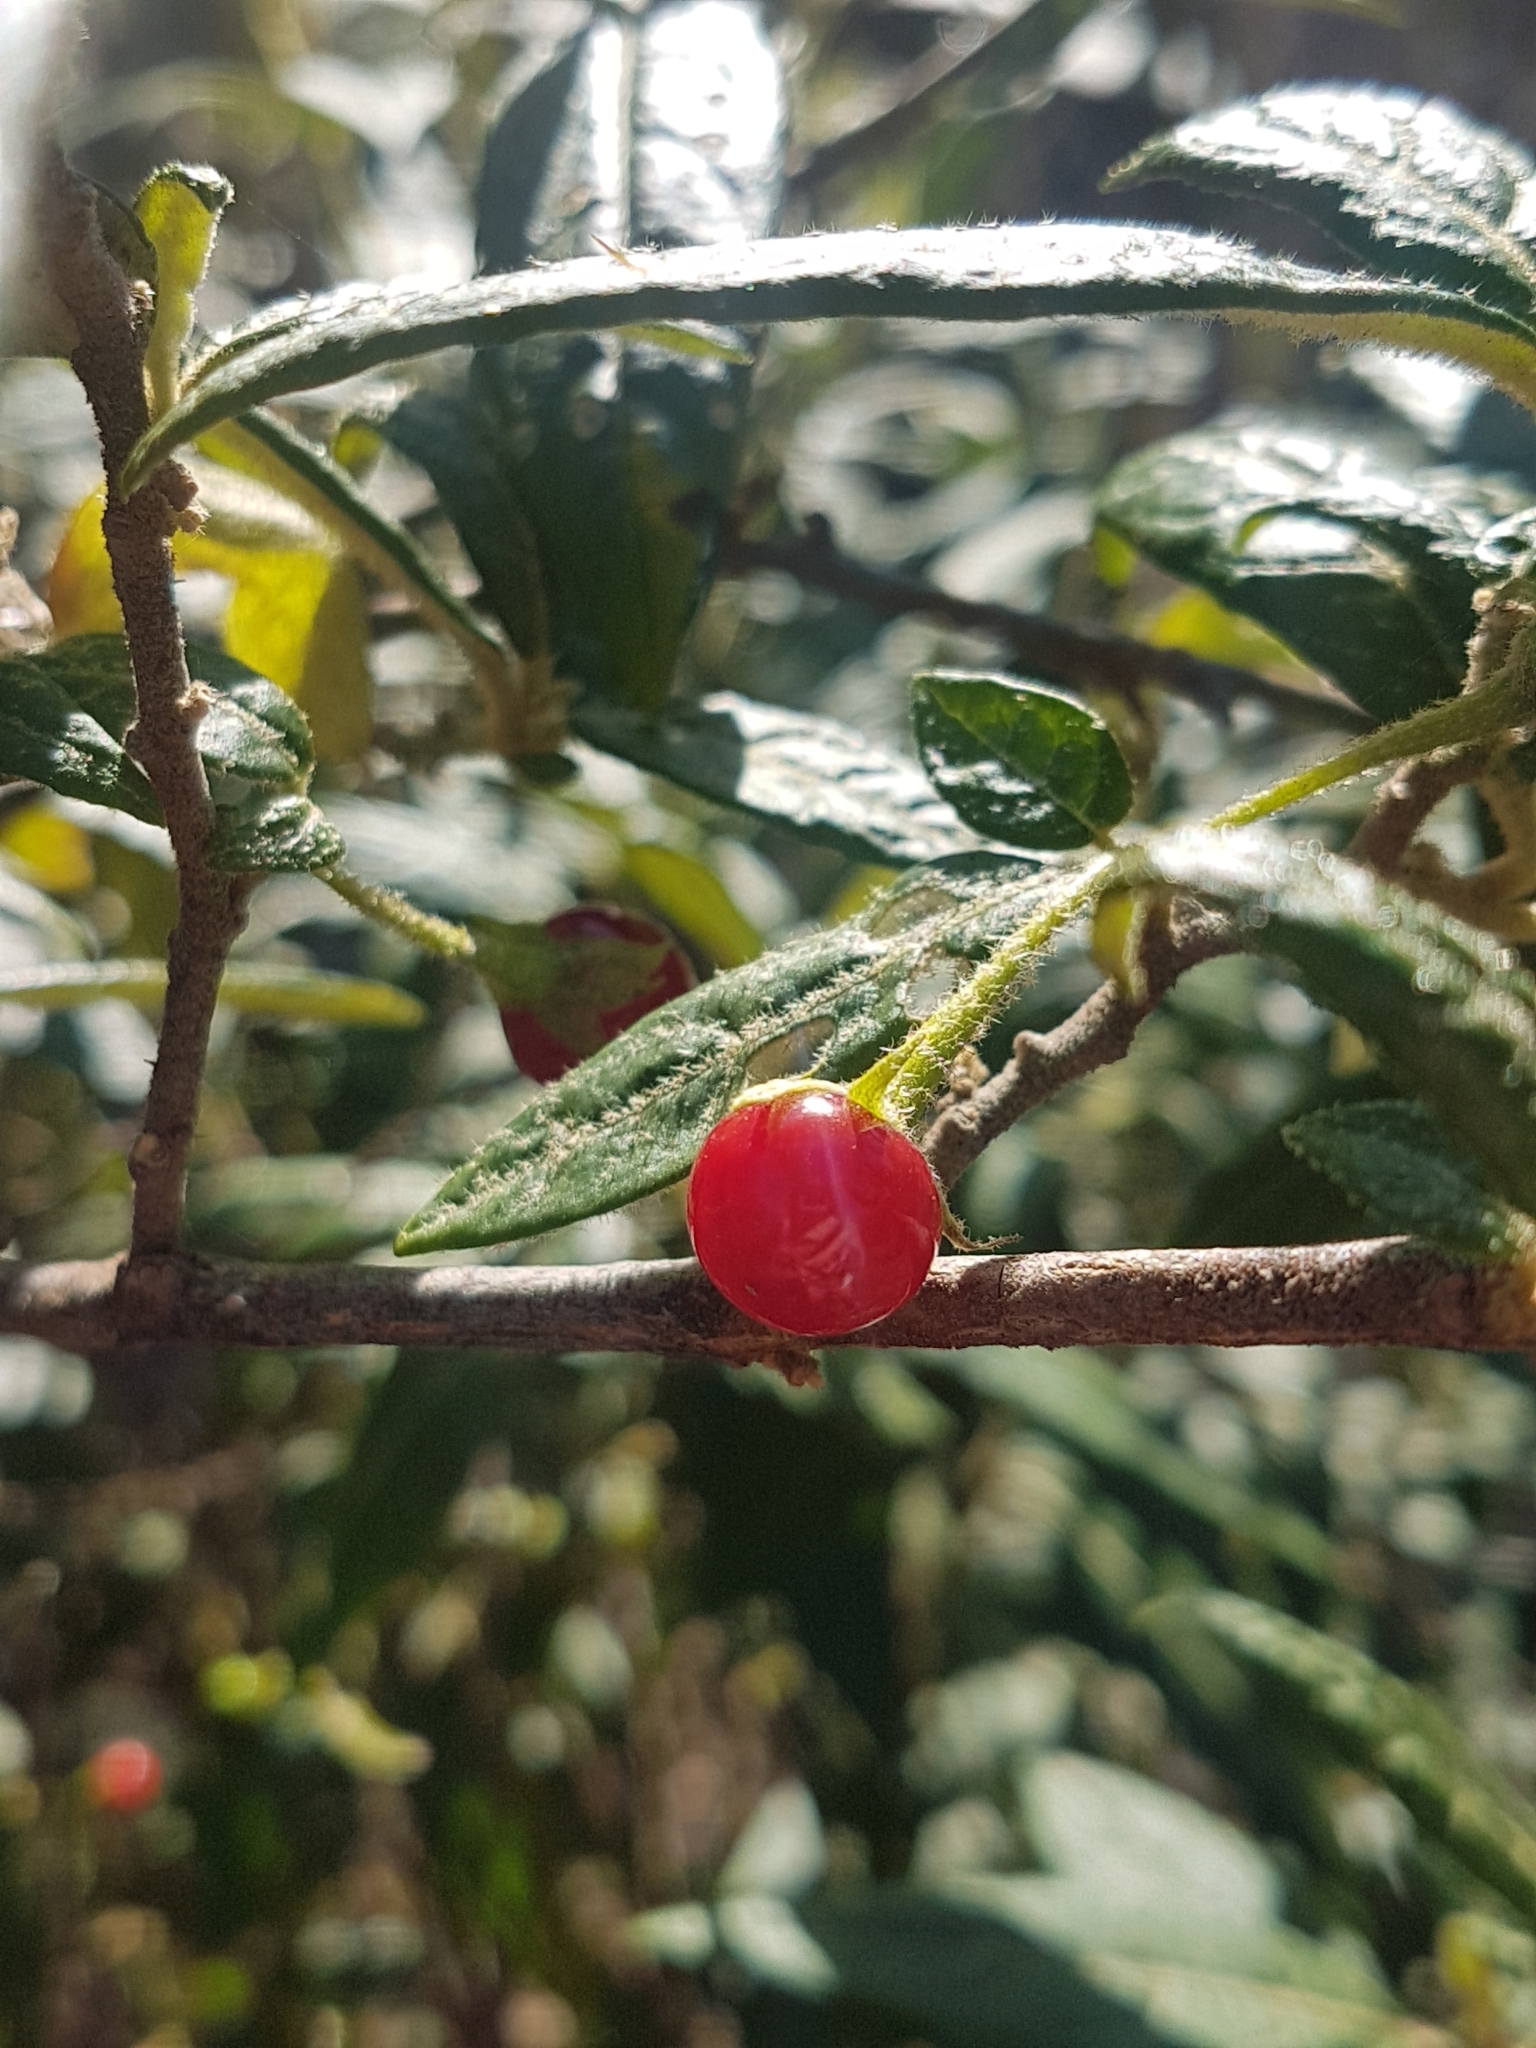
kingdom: Plantae
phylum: Tracheophyta
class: Magnoliopsida
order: Solanales
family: Solanaceae
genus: Solanum
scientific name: Solanum stelligerum
